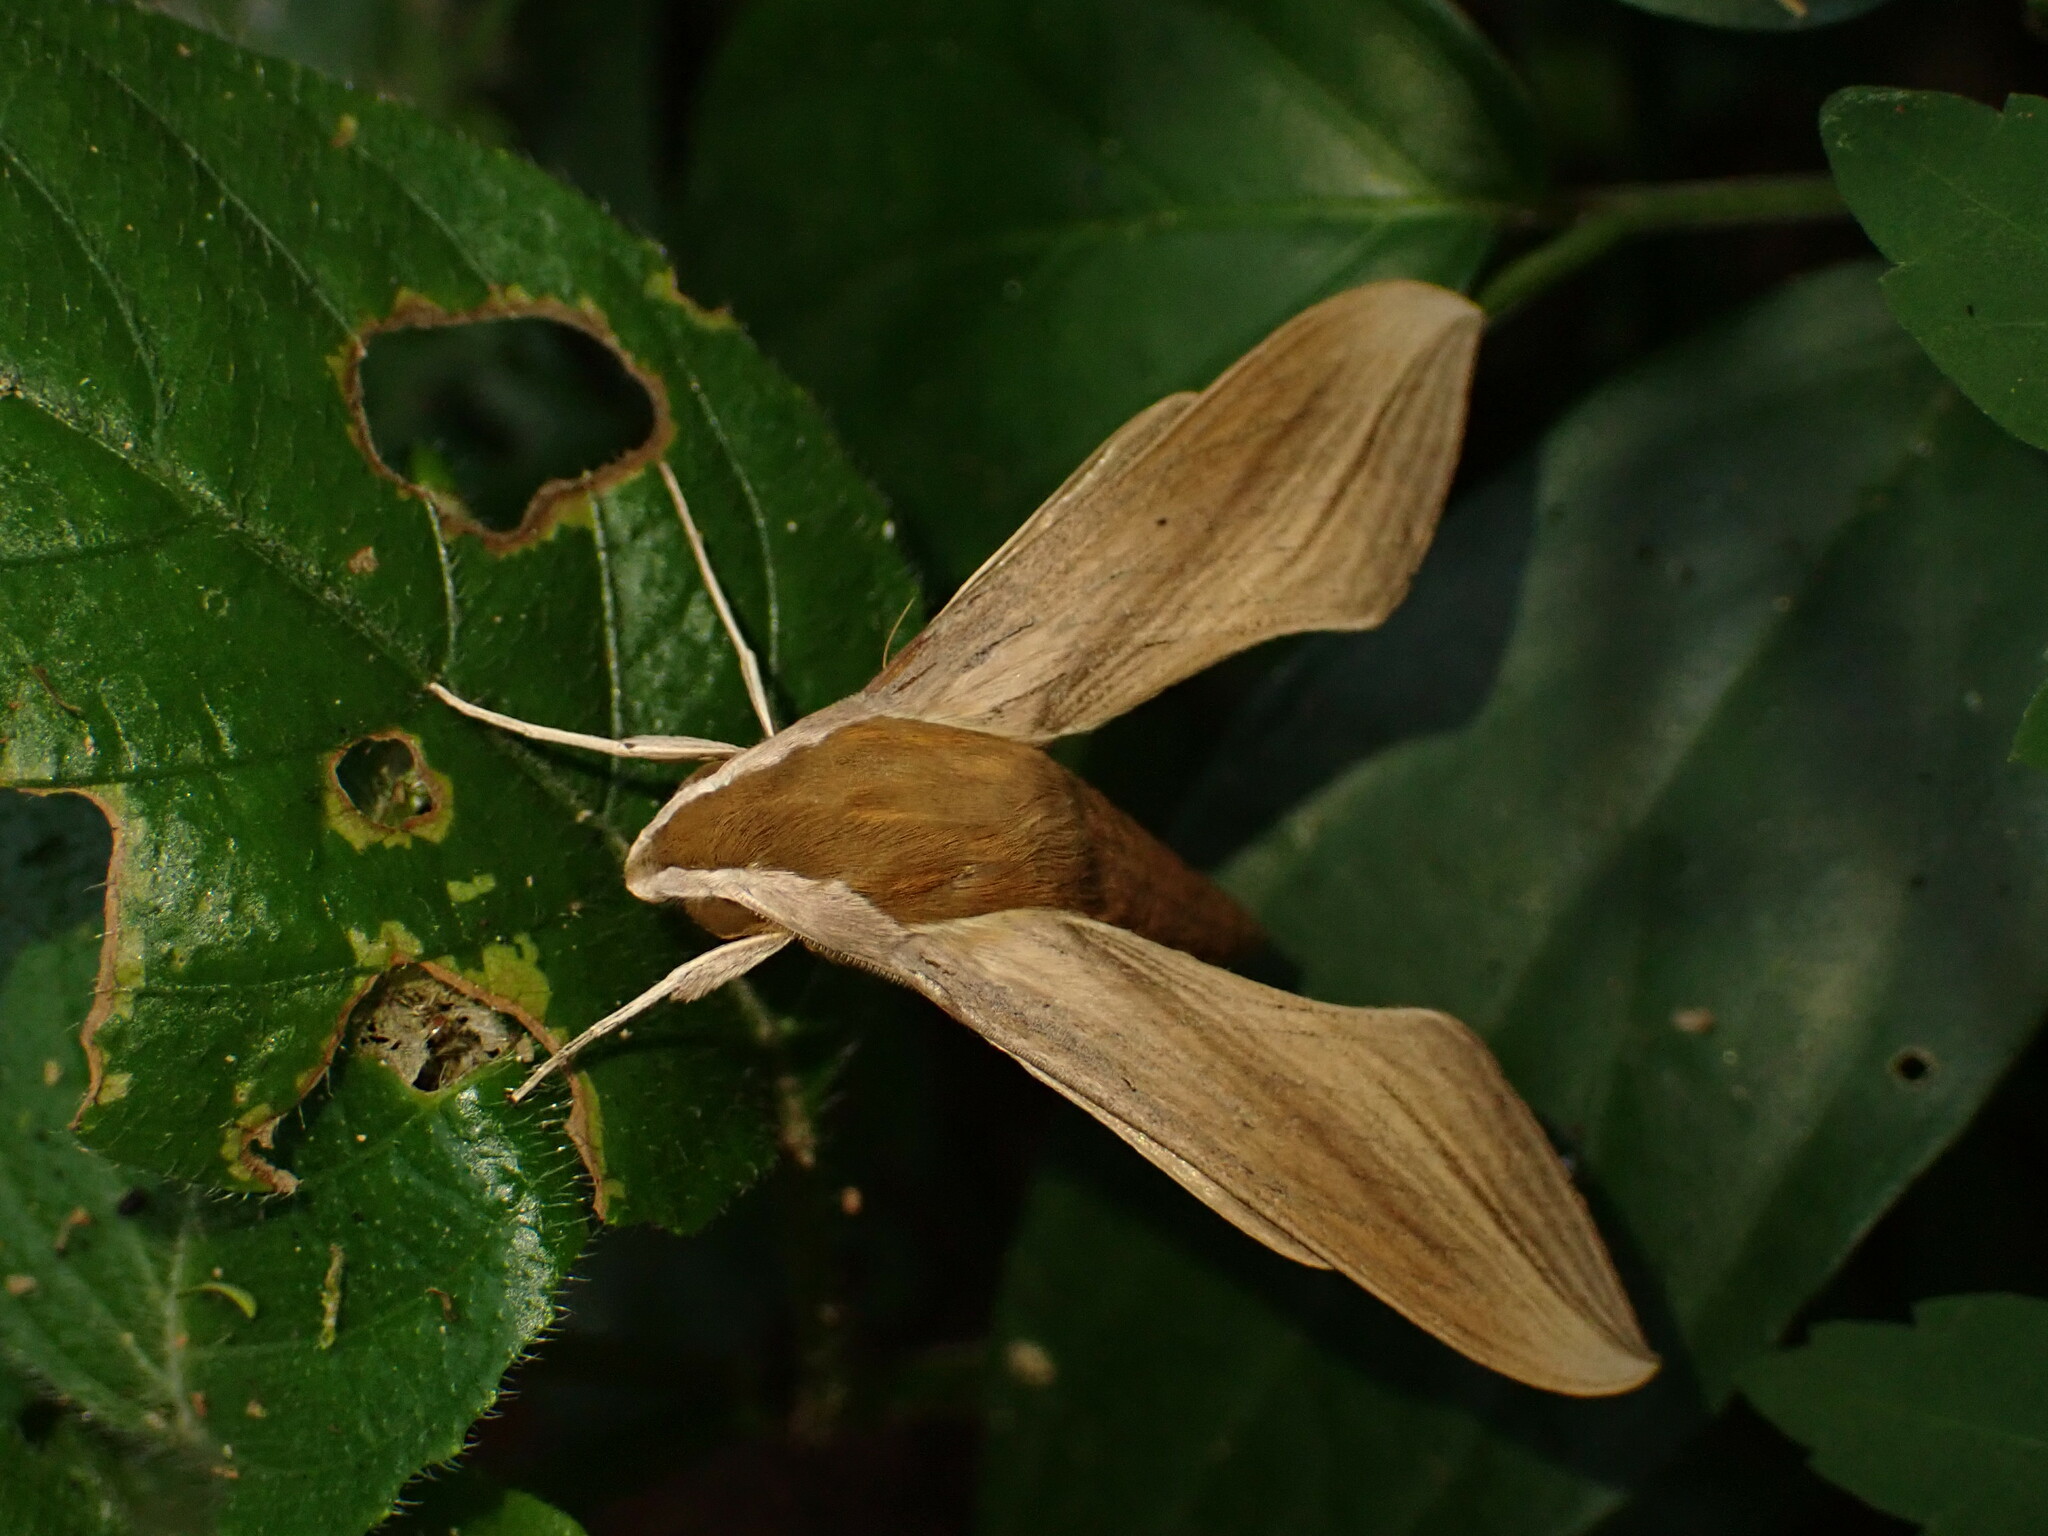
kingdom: Animalia
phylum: Arthropoda
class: Insecta
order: Lepidoptera
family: Sphingidae
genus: Xylophanes
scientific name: Xylophanes tersa
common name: Tersa sphinx
